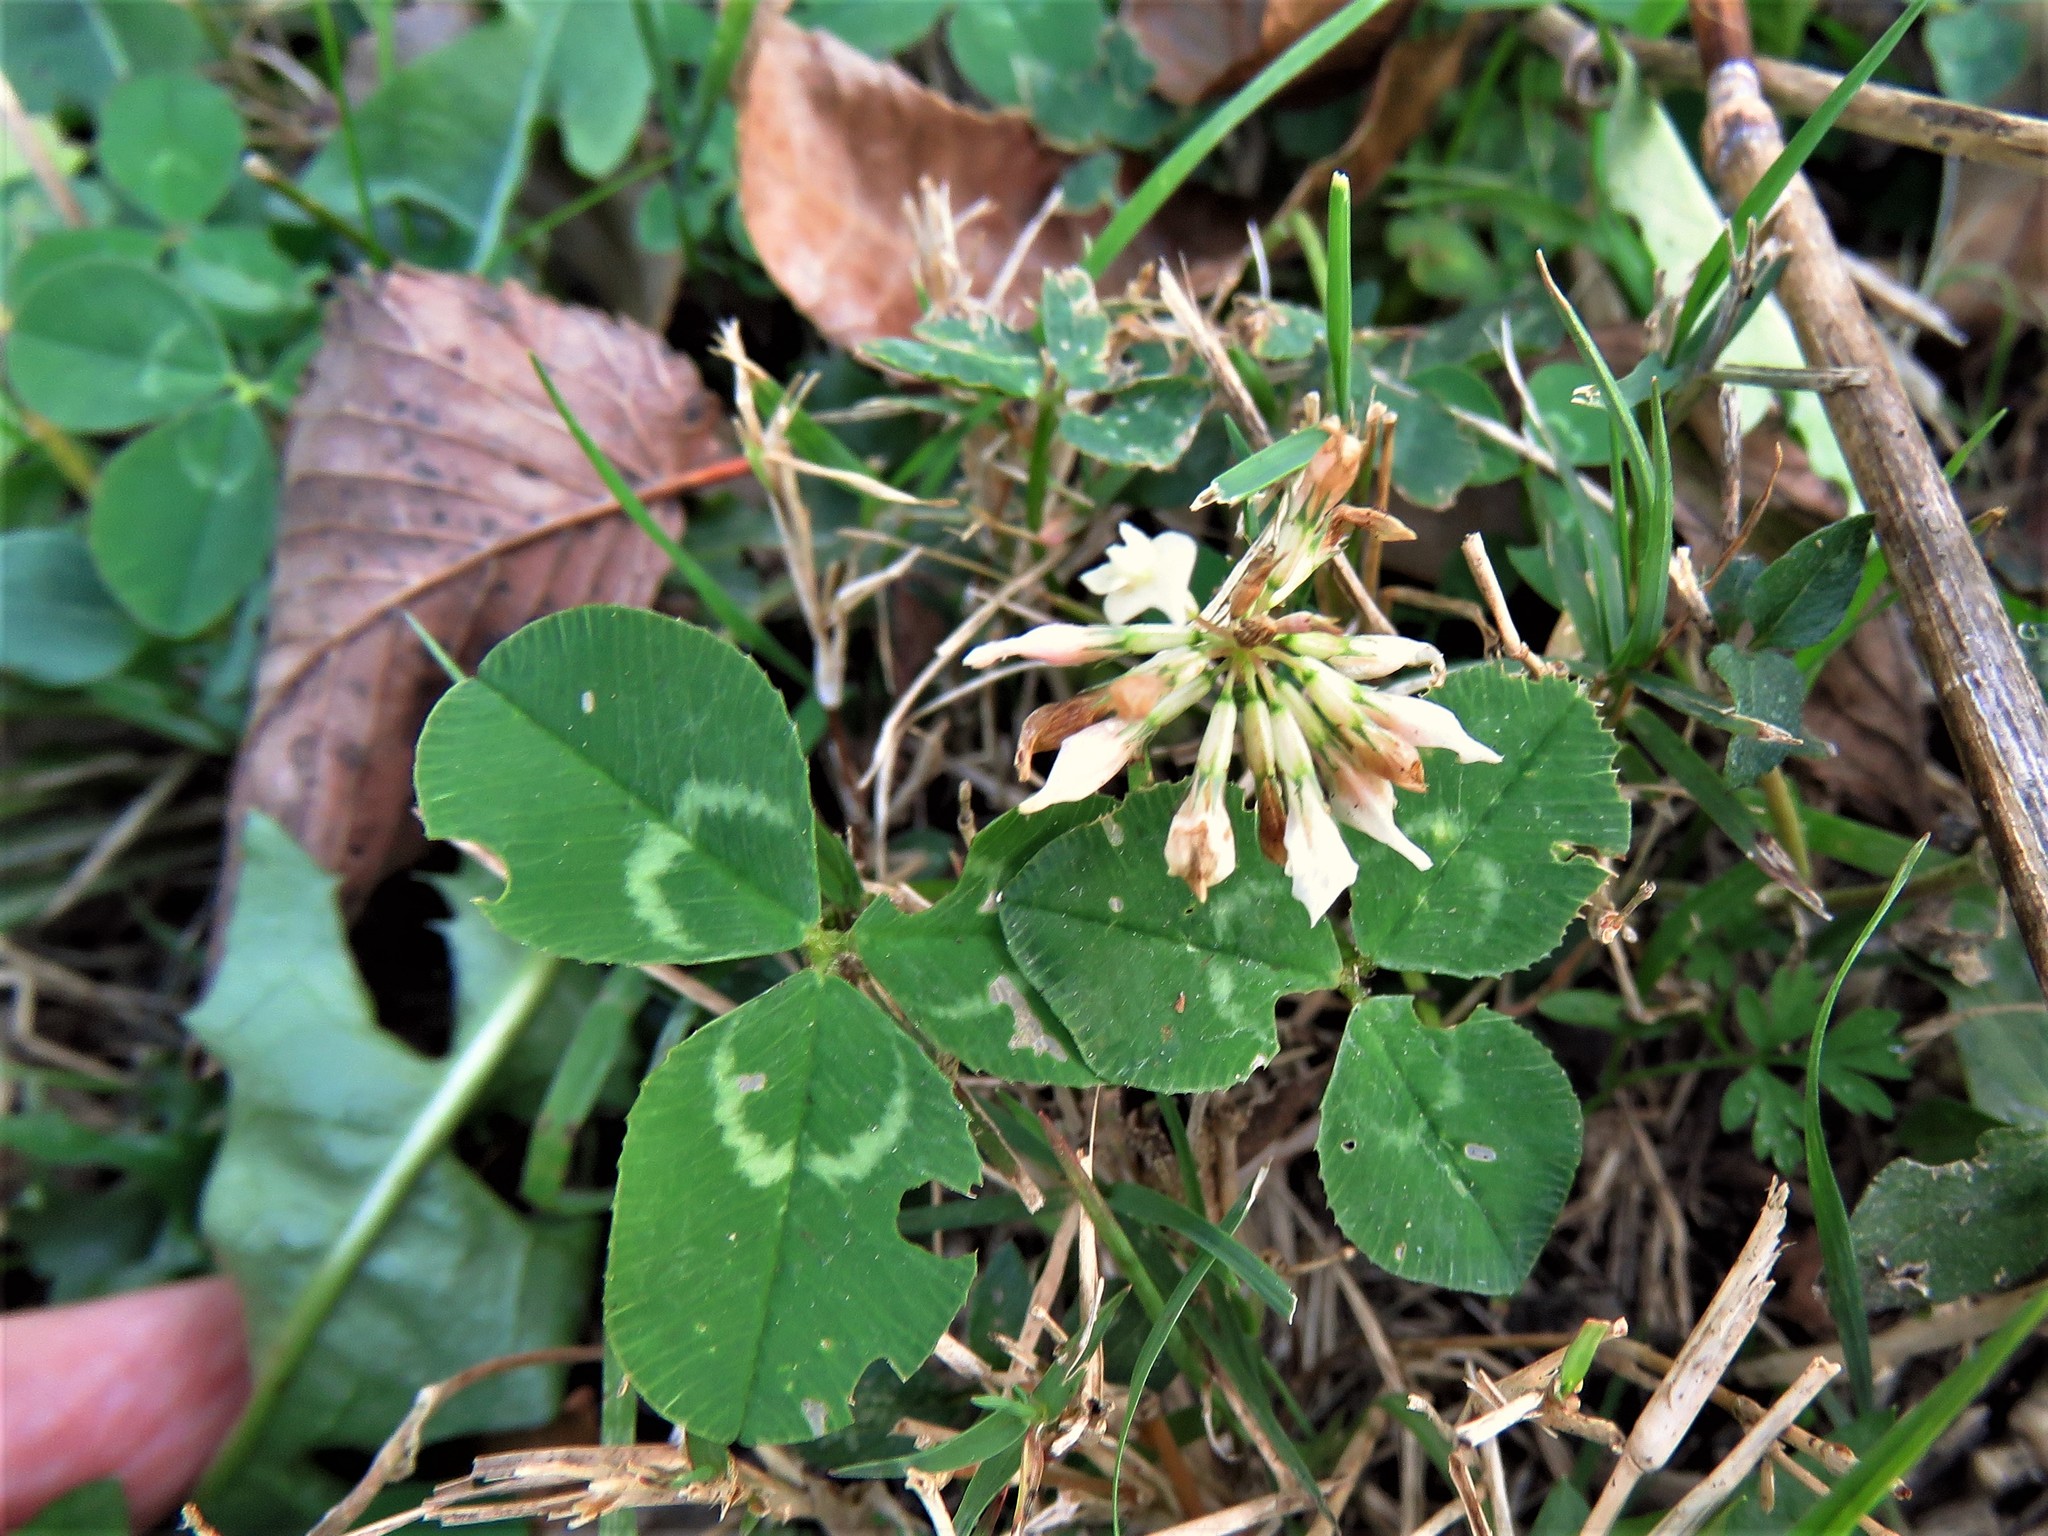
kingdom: Plantae
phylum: Tracheophyta
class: Magnoliopsida
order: Fabales
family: Fabaceae
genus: Trifolium
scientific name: Trifolium repens
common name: White clover
